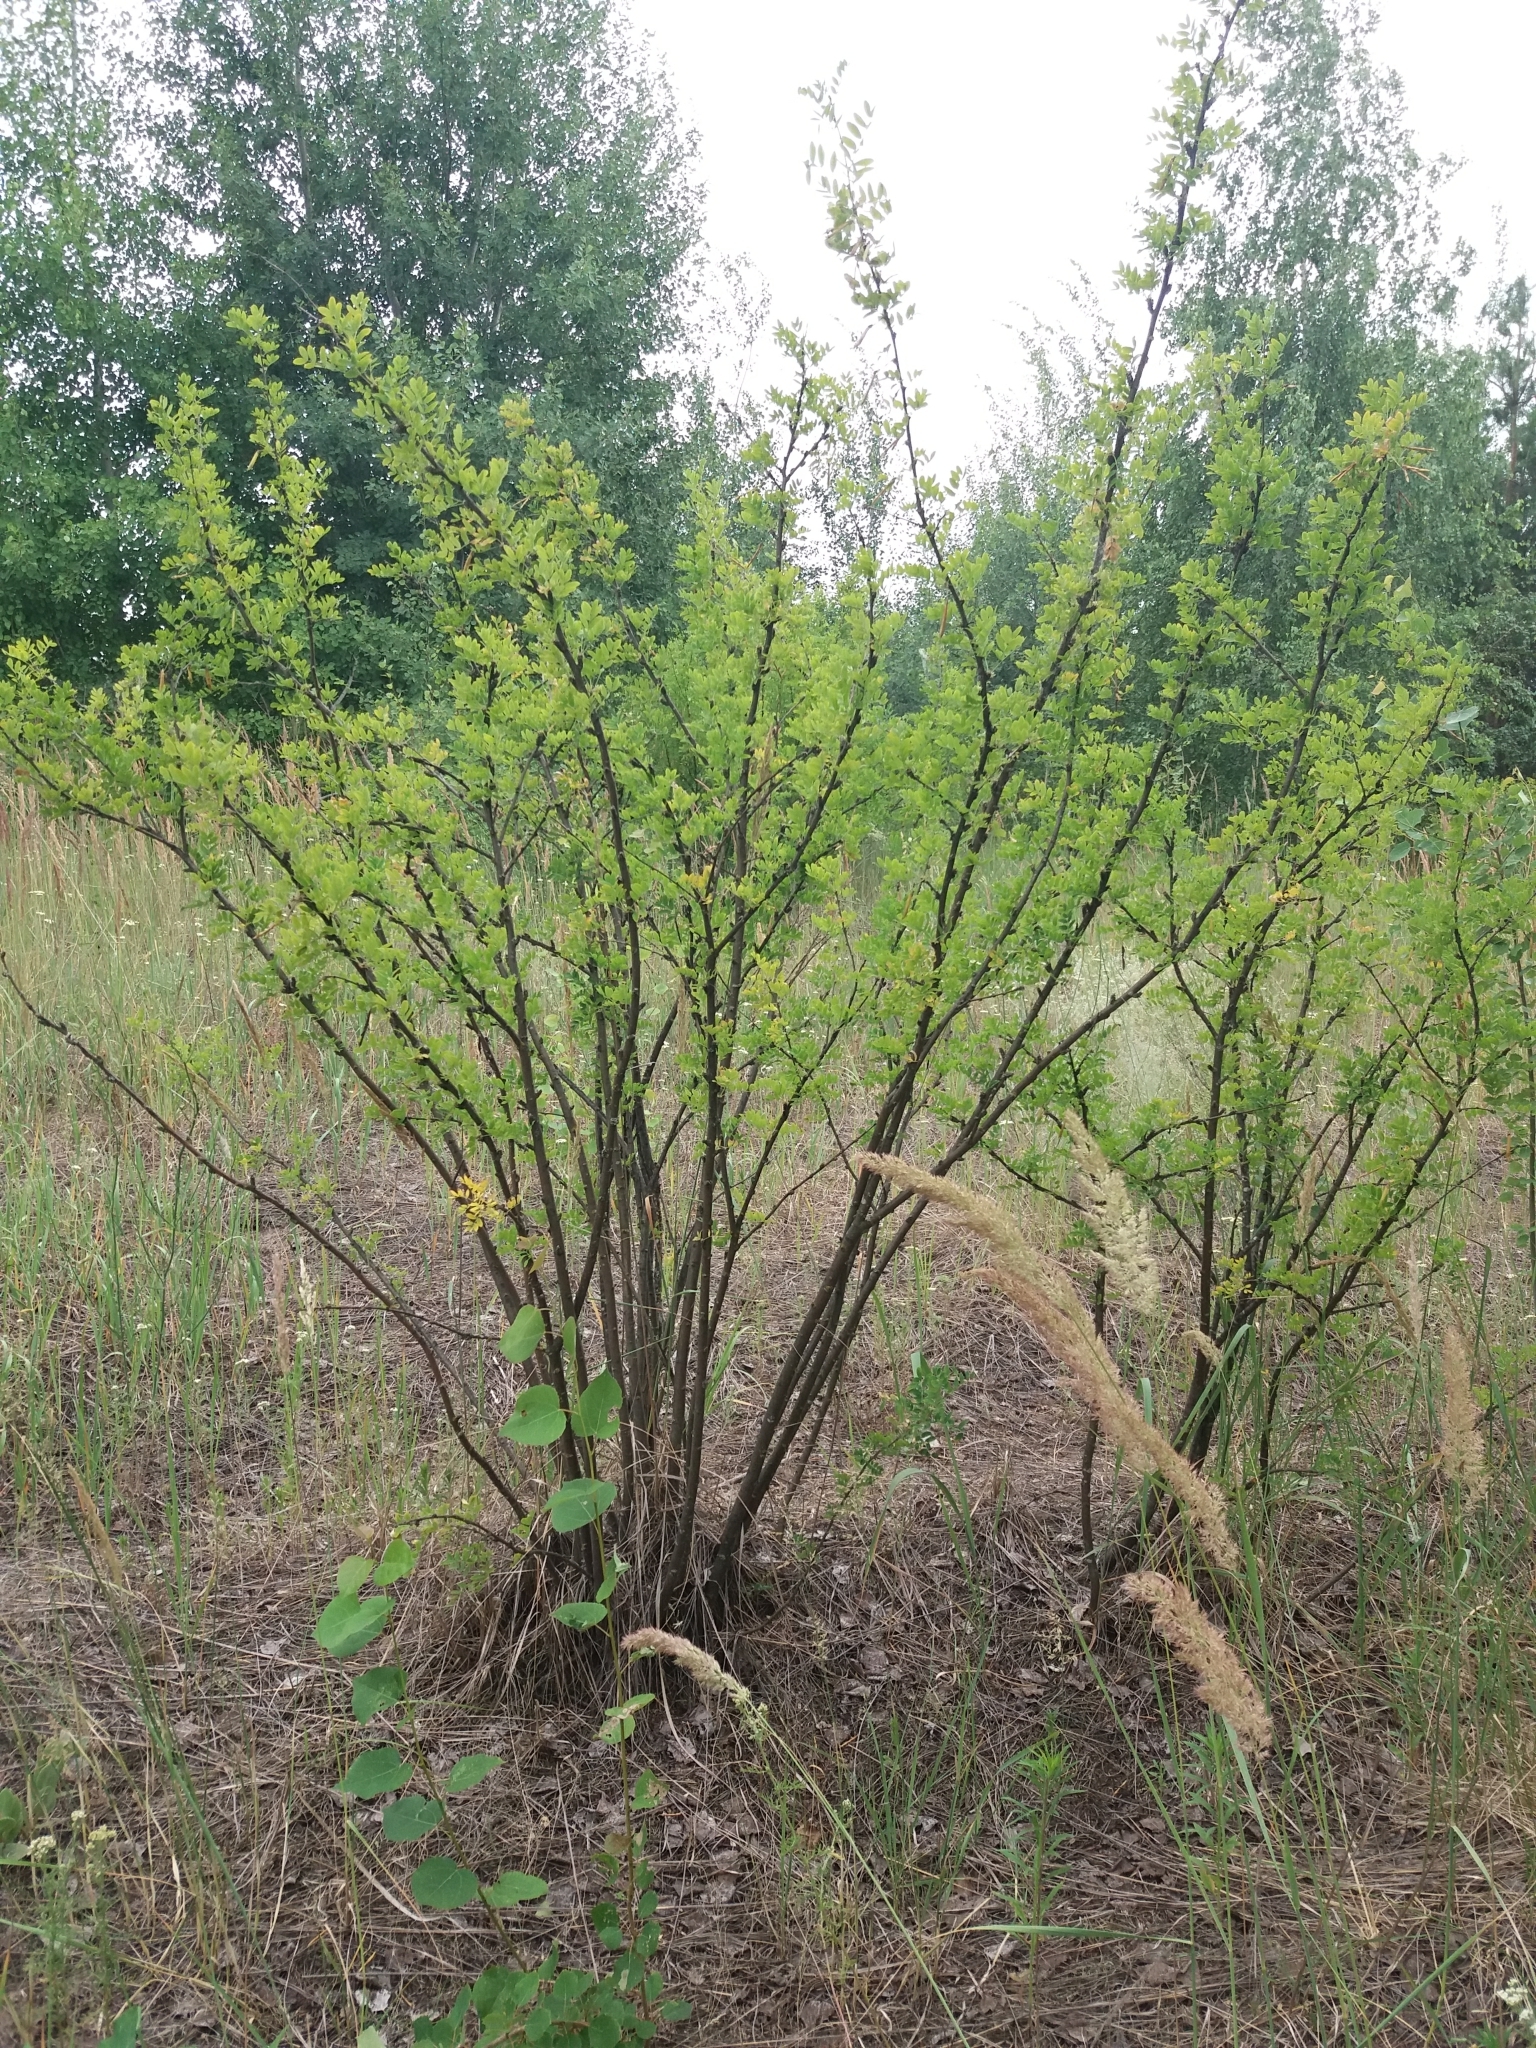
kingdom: Plantae
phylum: Tracheophyta
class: Magnoliopsida
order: Fabales
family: Fabaceae
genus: Caragana
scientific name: Caragana arborescens
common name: Siberian peashrub
